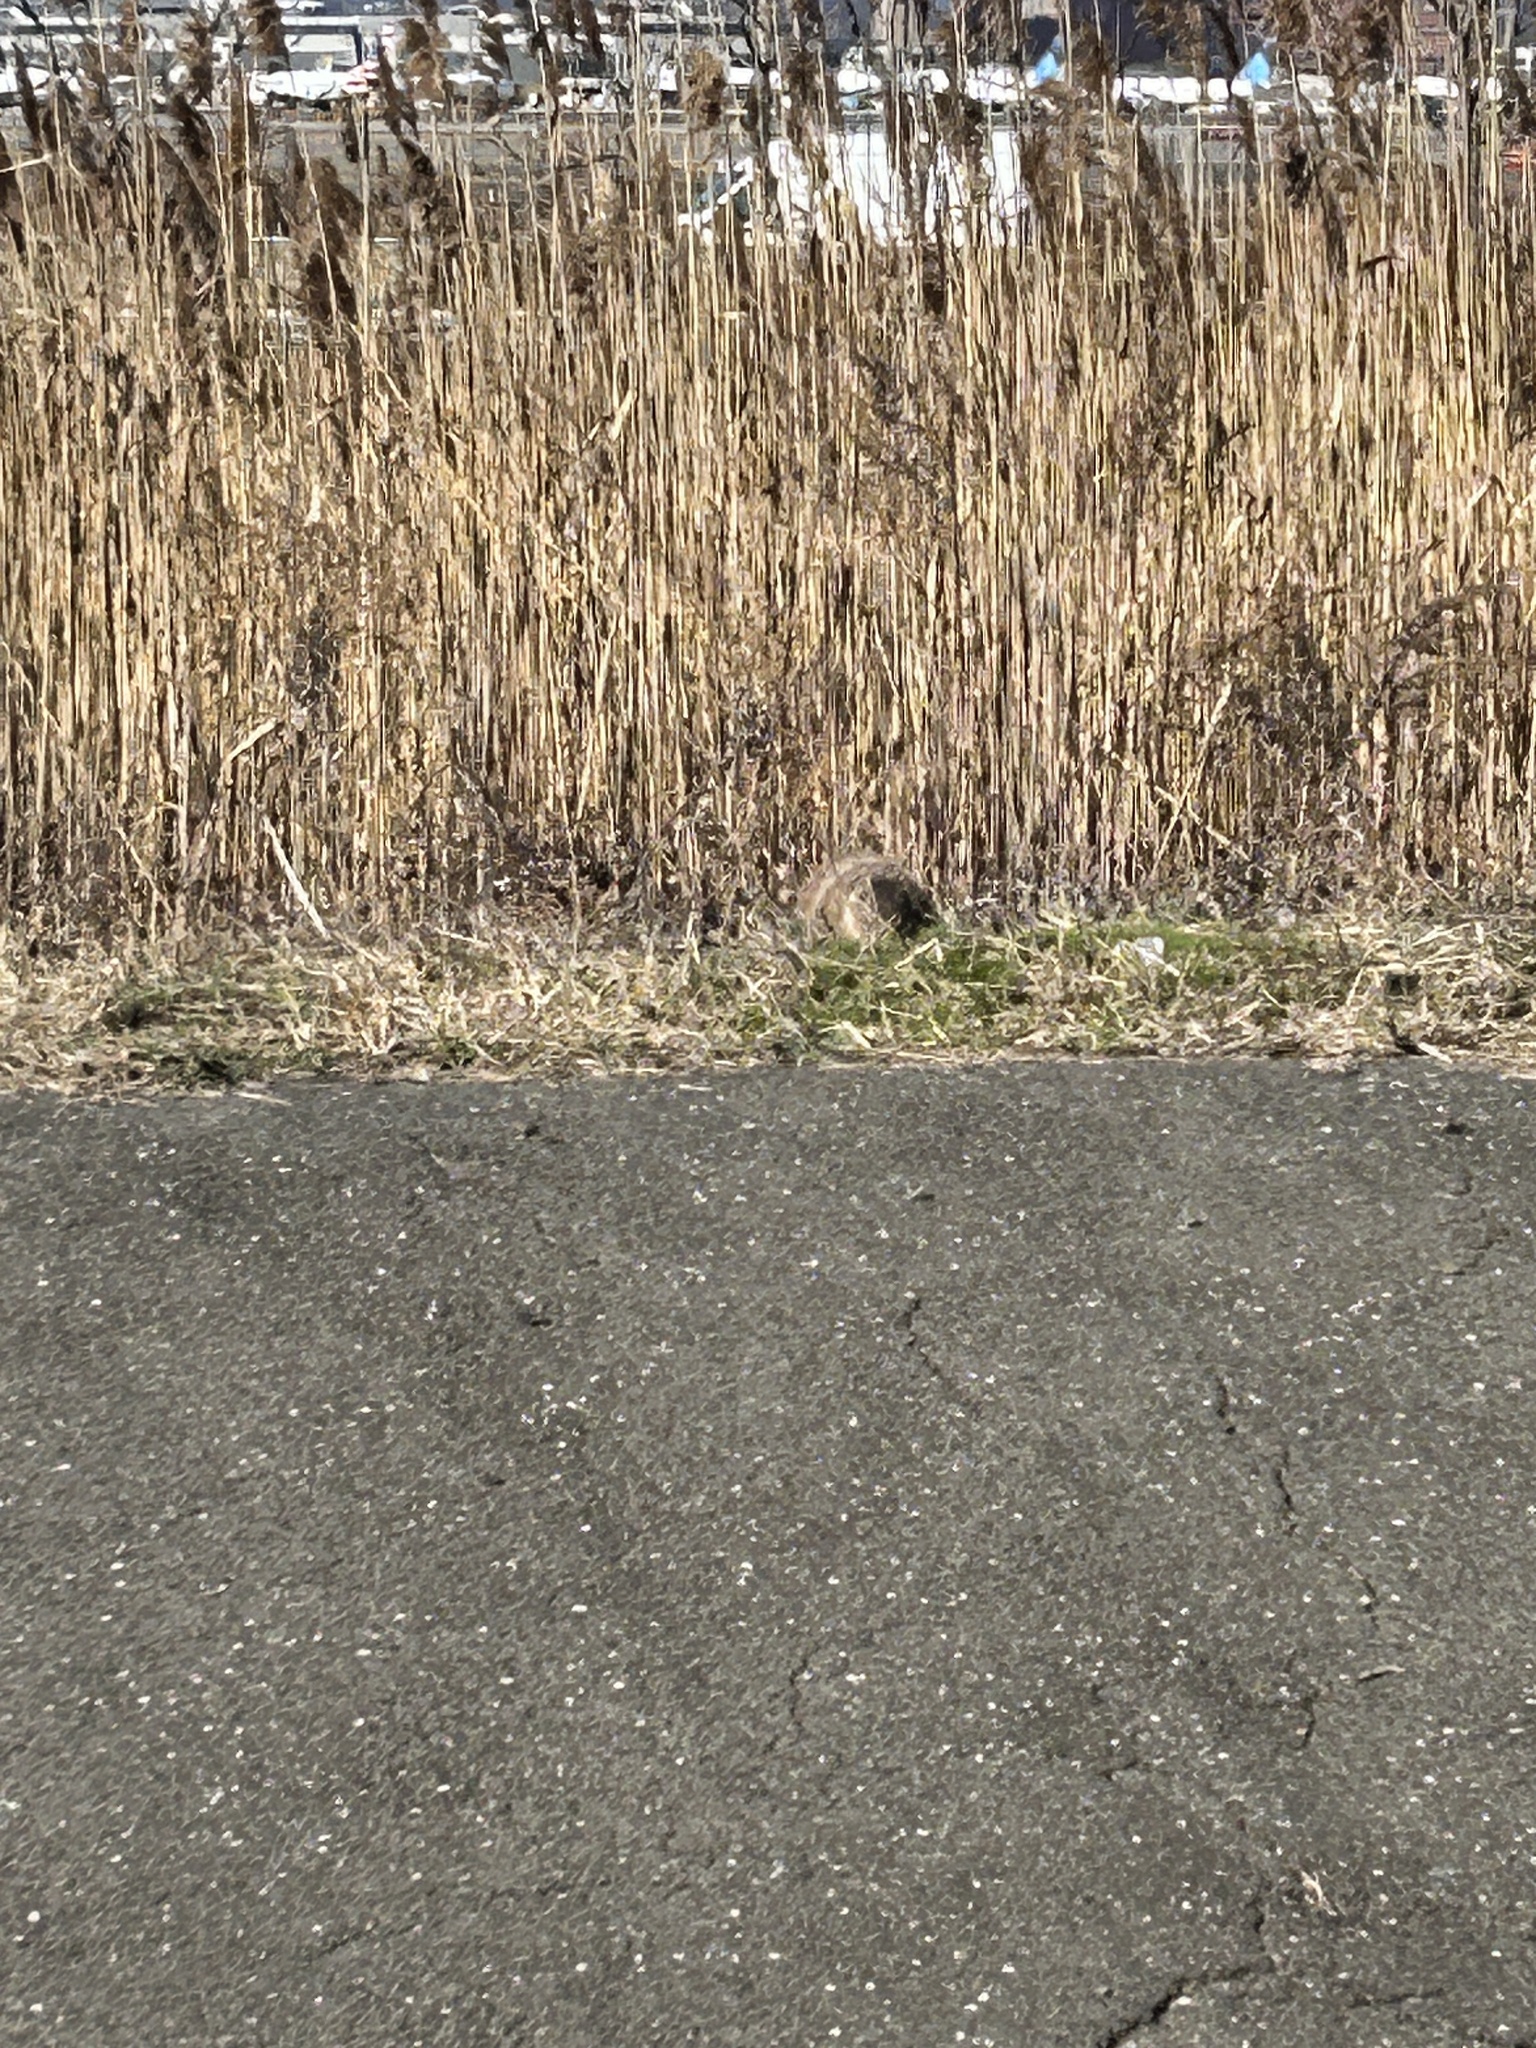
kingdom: Animalia
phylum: Chordata
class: Mammalia
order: Rodentia
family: Sciuridae
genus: Marmota
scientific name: Marmota monax
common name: Groundhog
